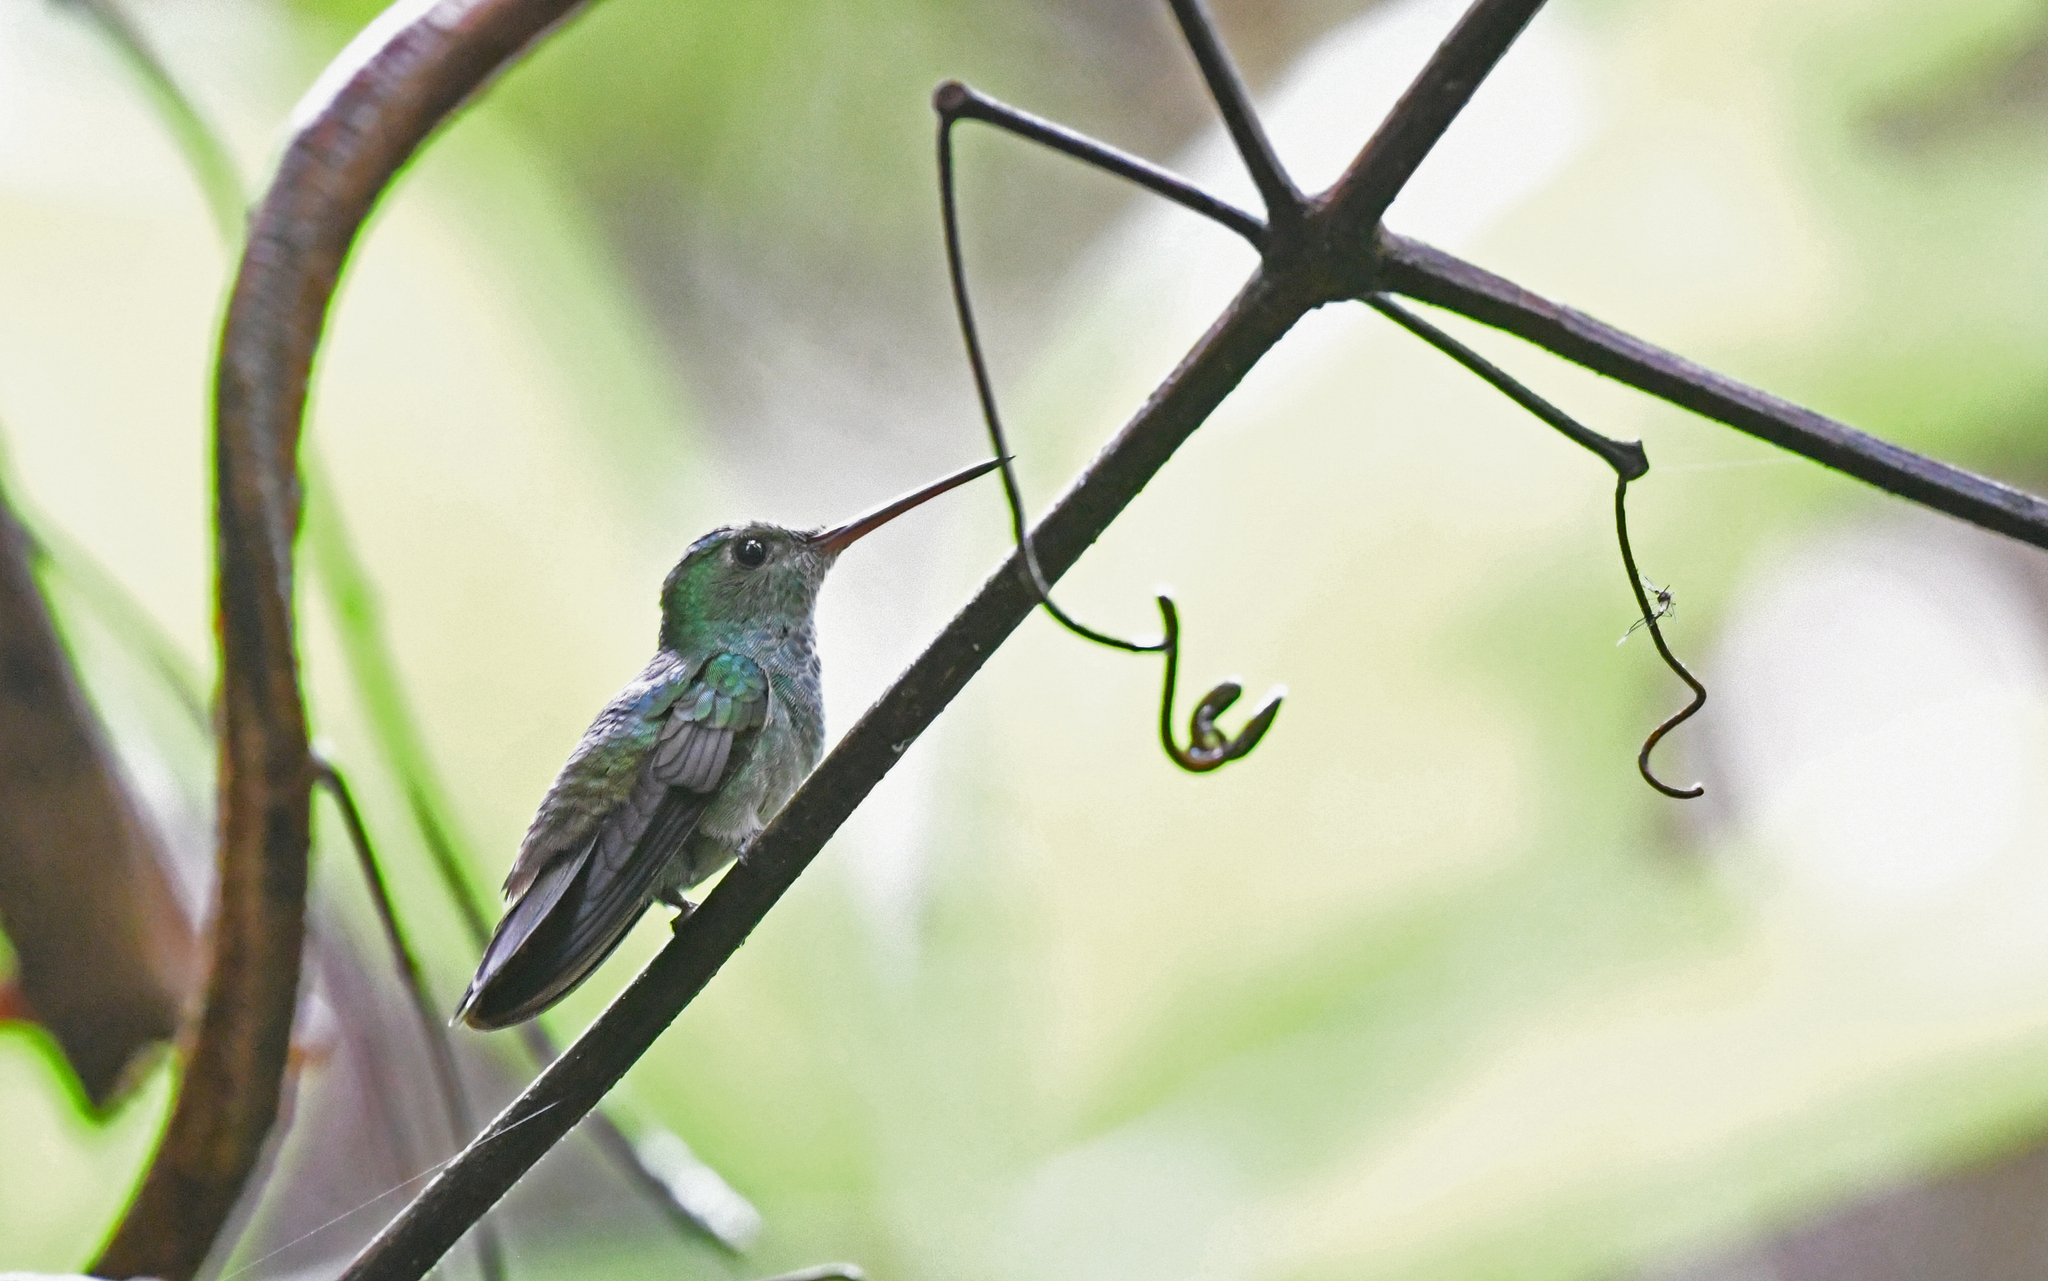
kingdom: Animalia
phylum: Chordata
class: Aves
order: Apodiformes
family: Trochilidae
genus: Polyerata
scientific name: Polyerata amabilis
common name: Blue-chested hummingbird
